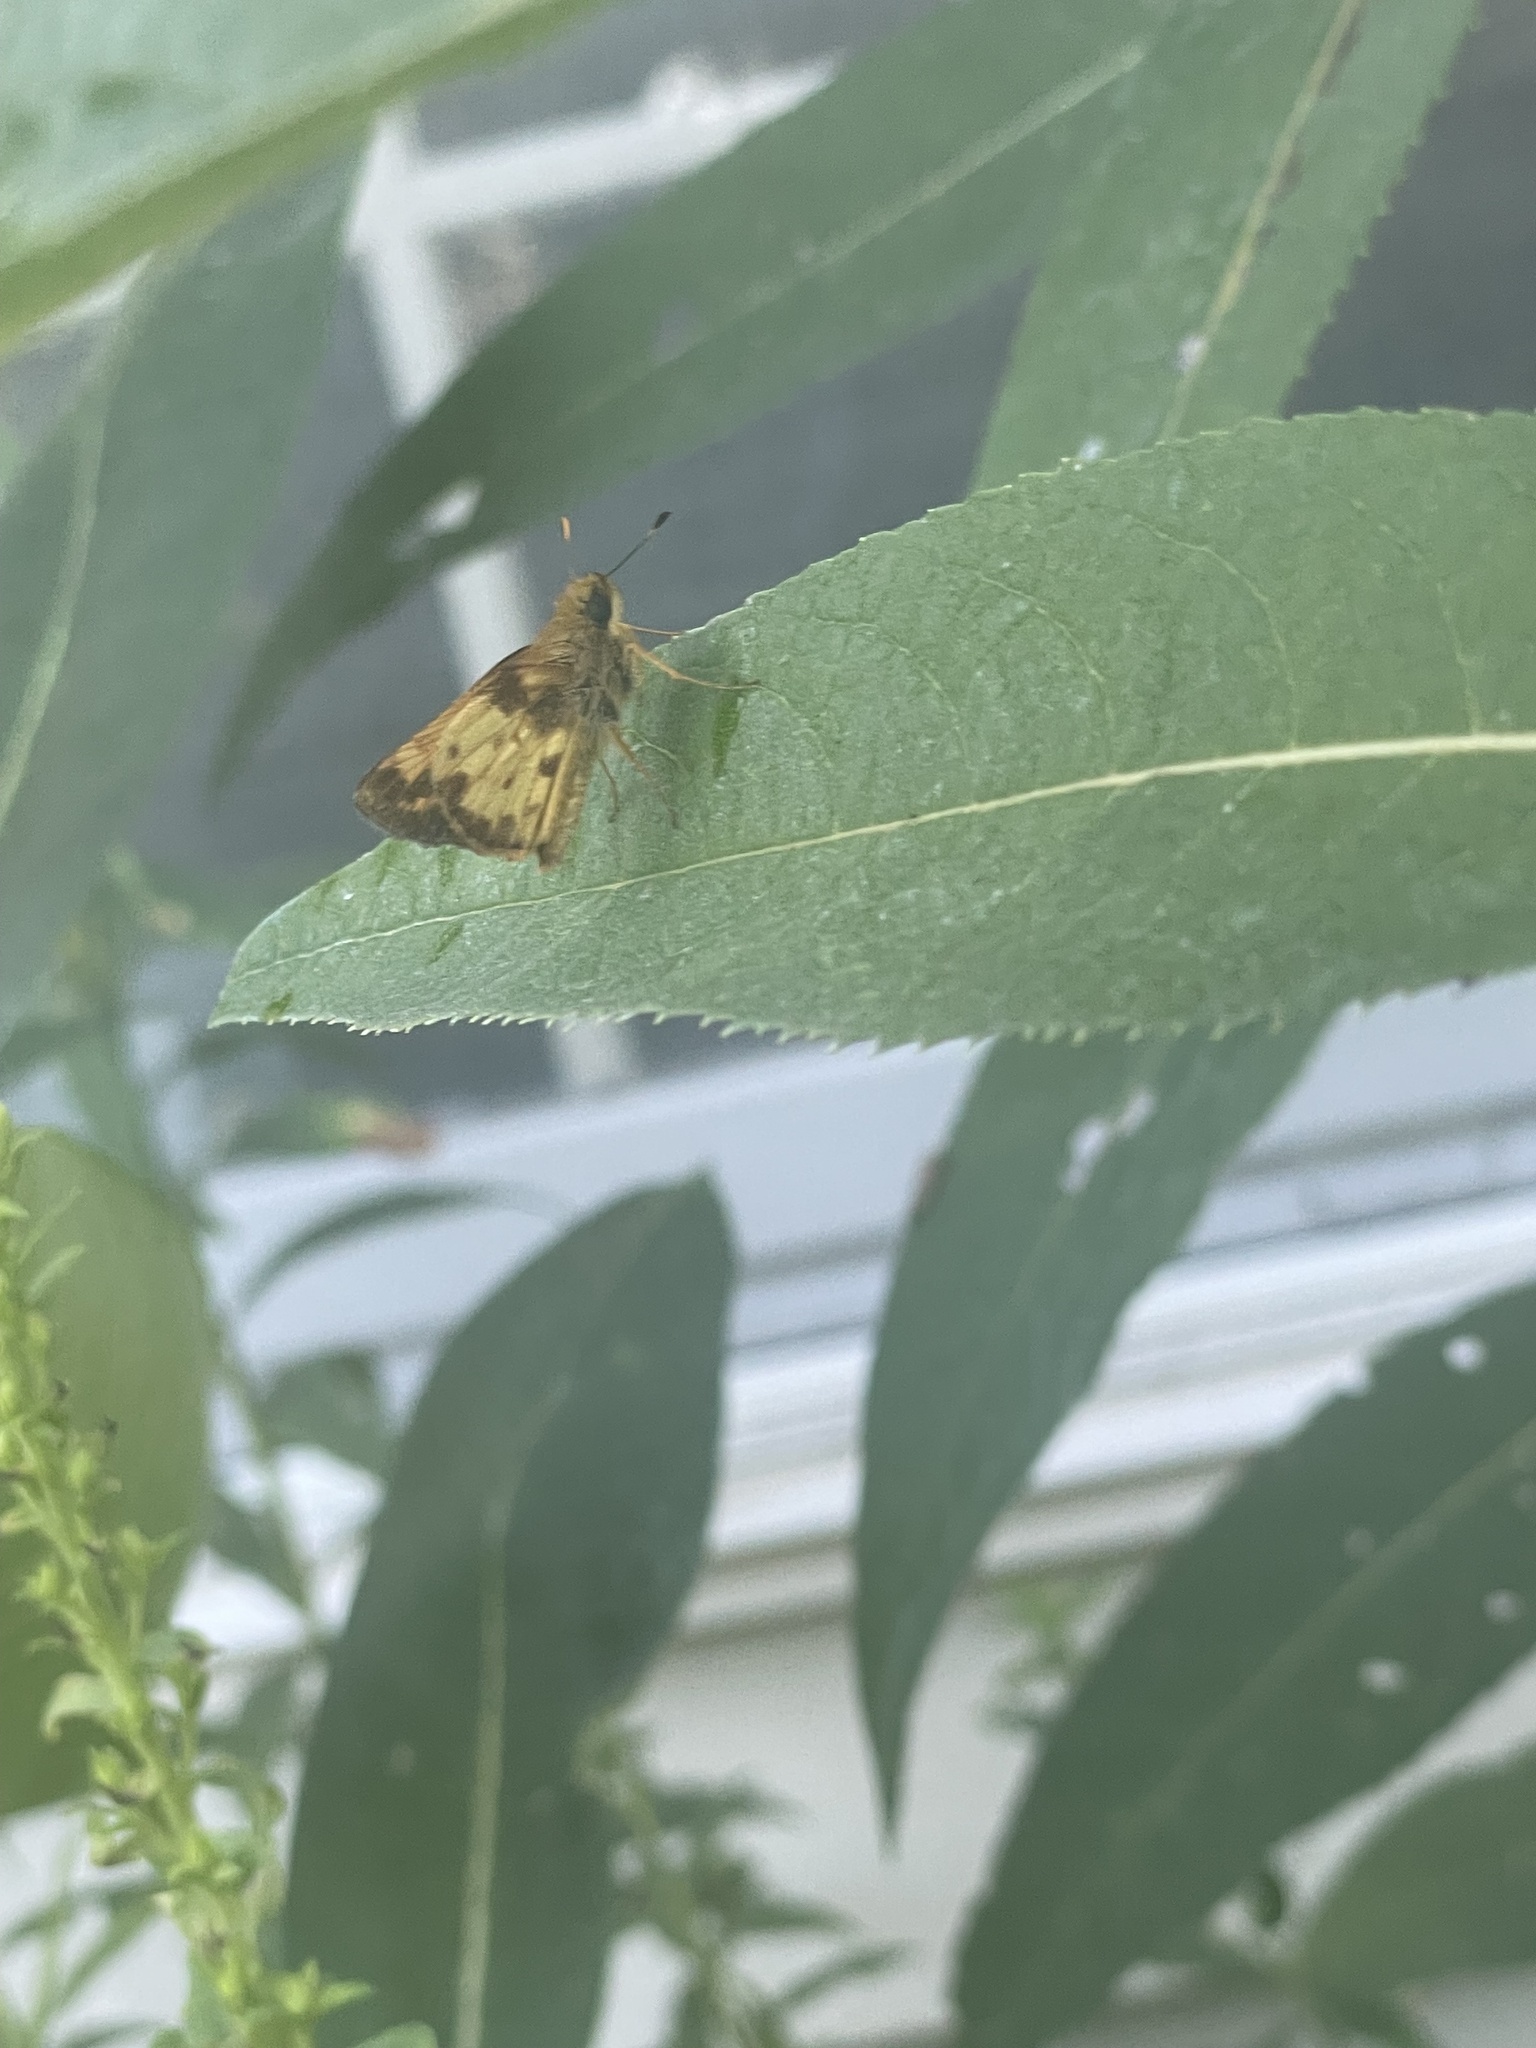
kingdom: Animalia
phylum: Arthropoda
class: Insecta
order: Lepidoptera
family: Hesperiidae
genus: Lon
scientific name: Lon zabulon
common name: Zabulon skipper
